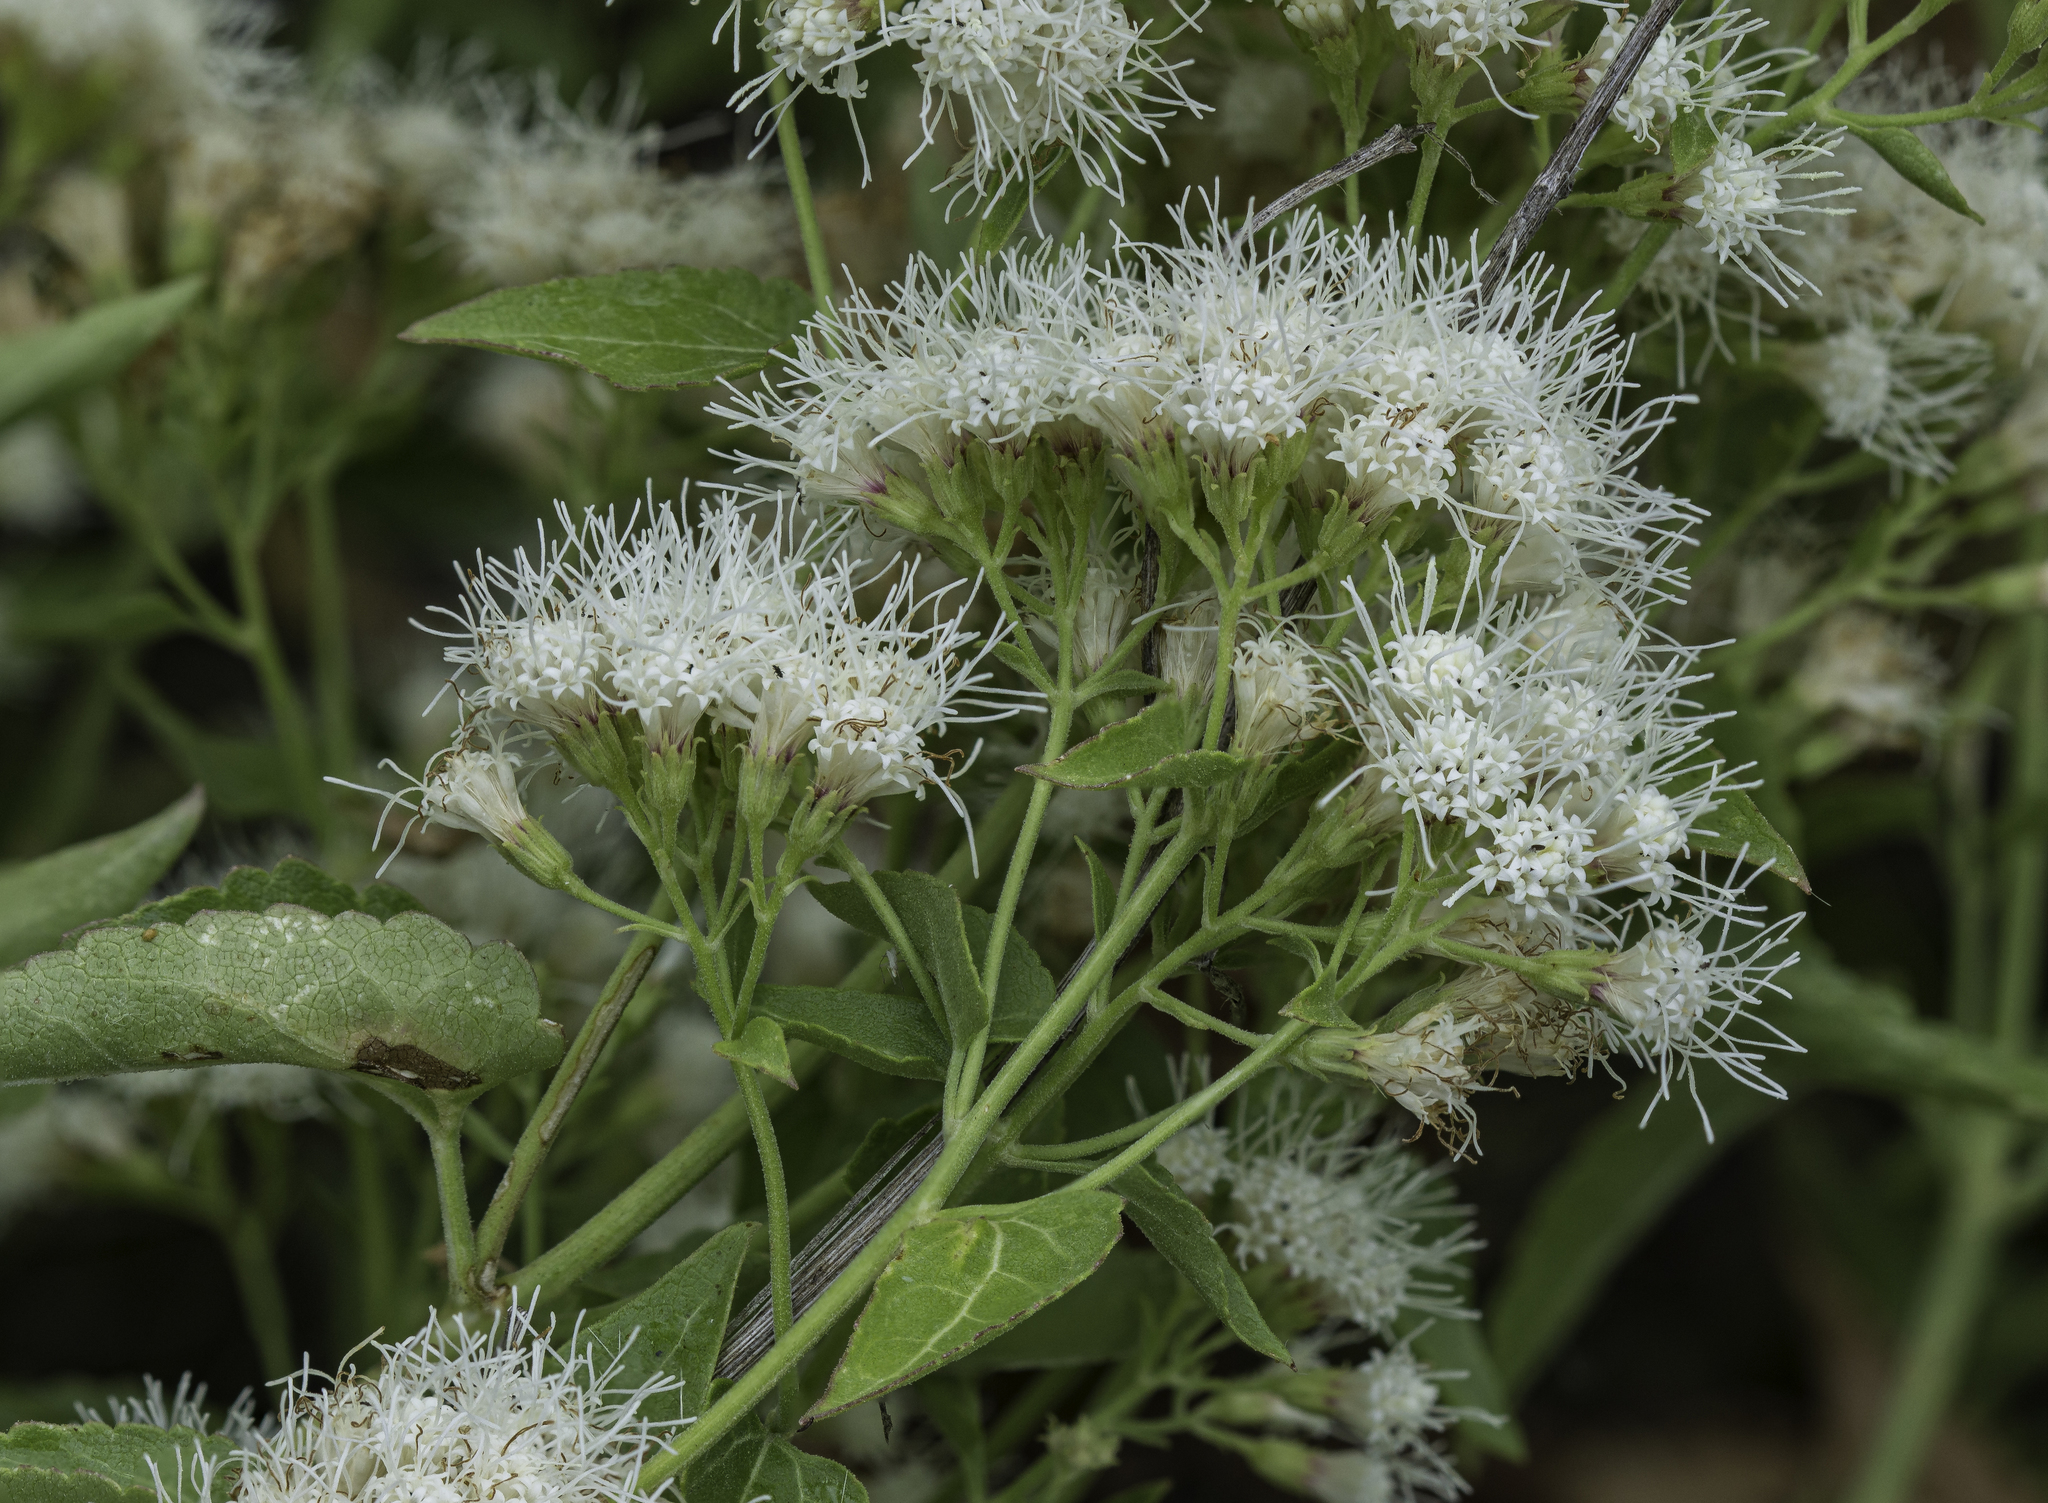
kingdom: Plantae
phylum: Tracheophyta
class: Magnoliopsida
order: Asterales
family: Asteraceae
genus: Ageratina
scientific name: Ageratina herbacea
